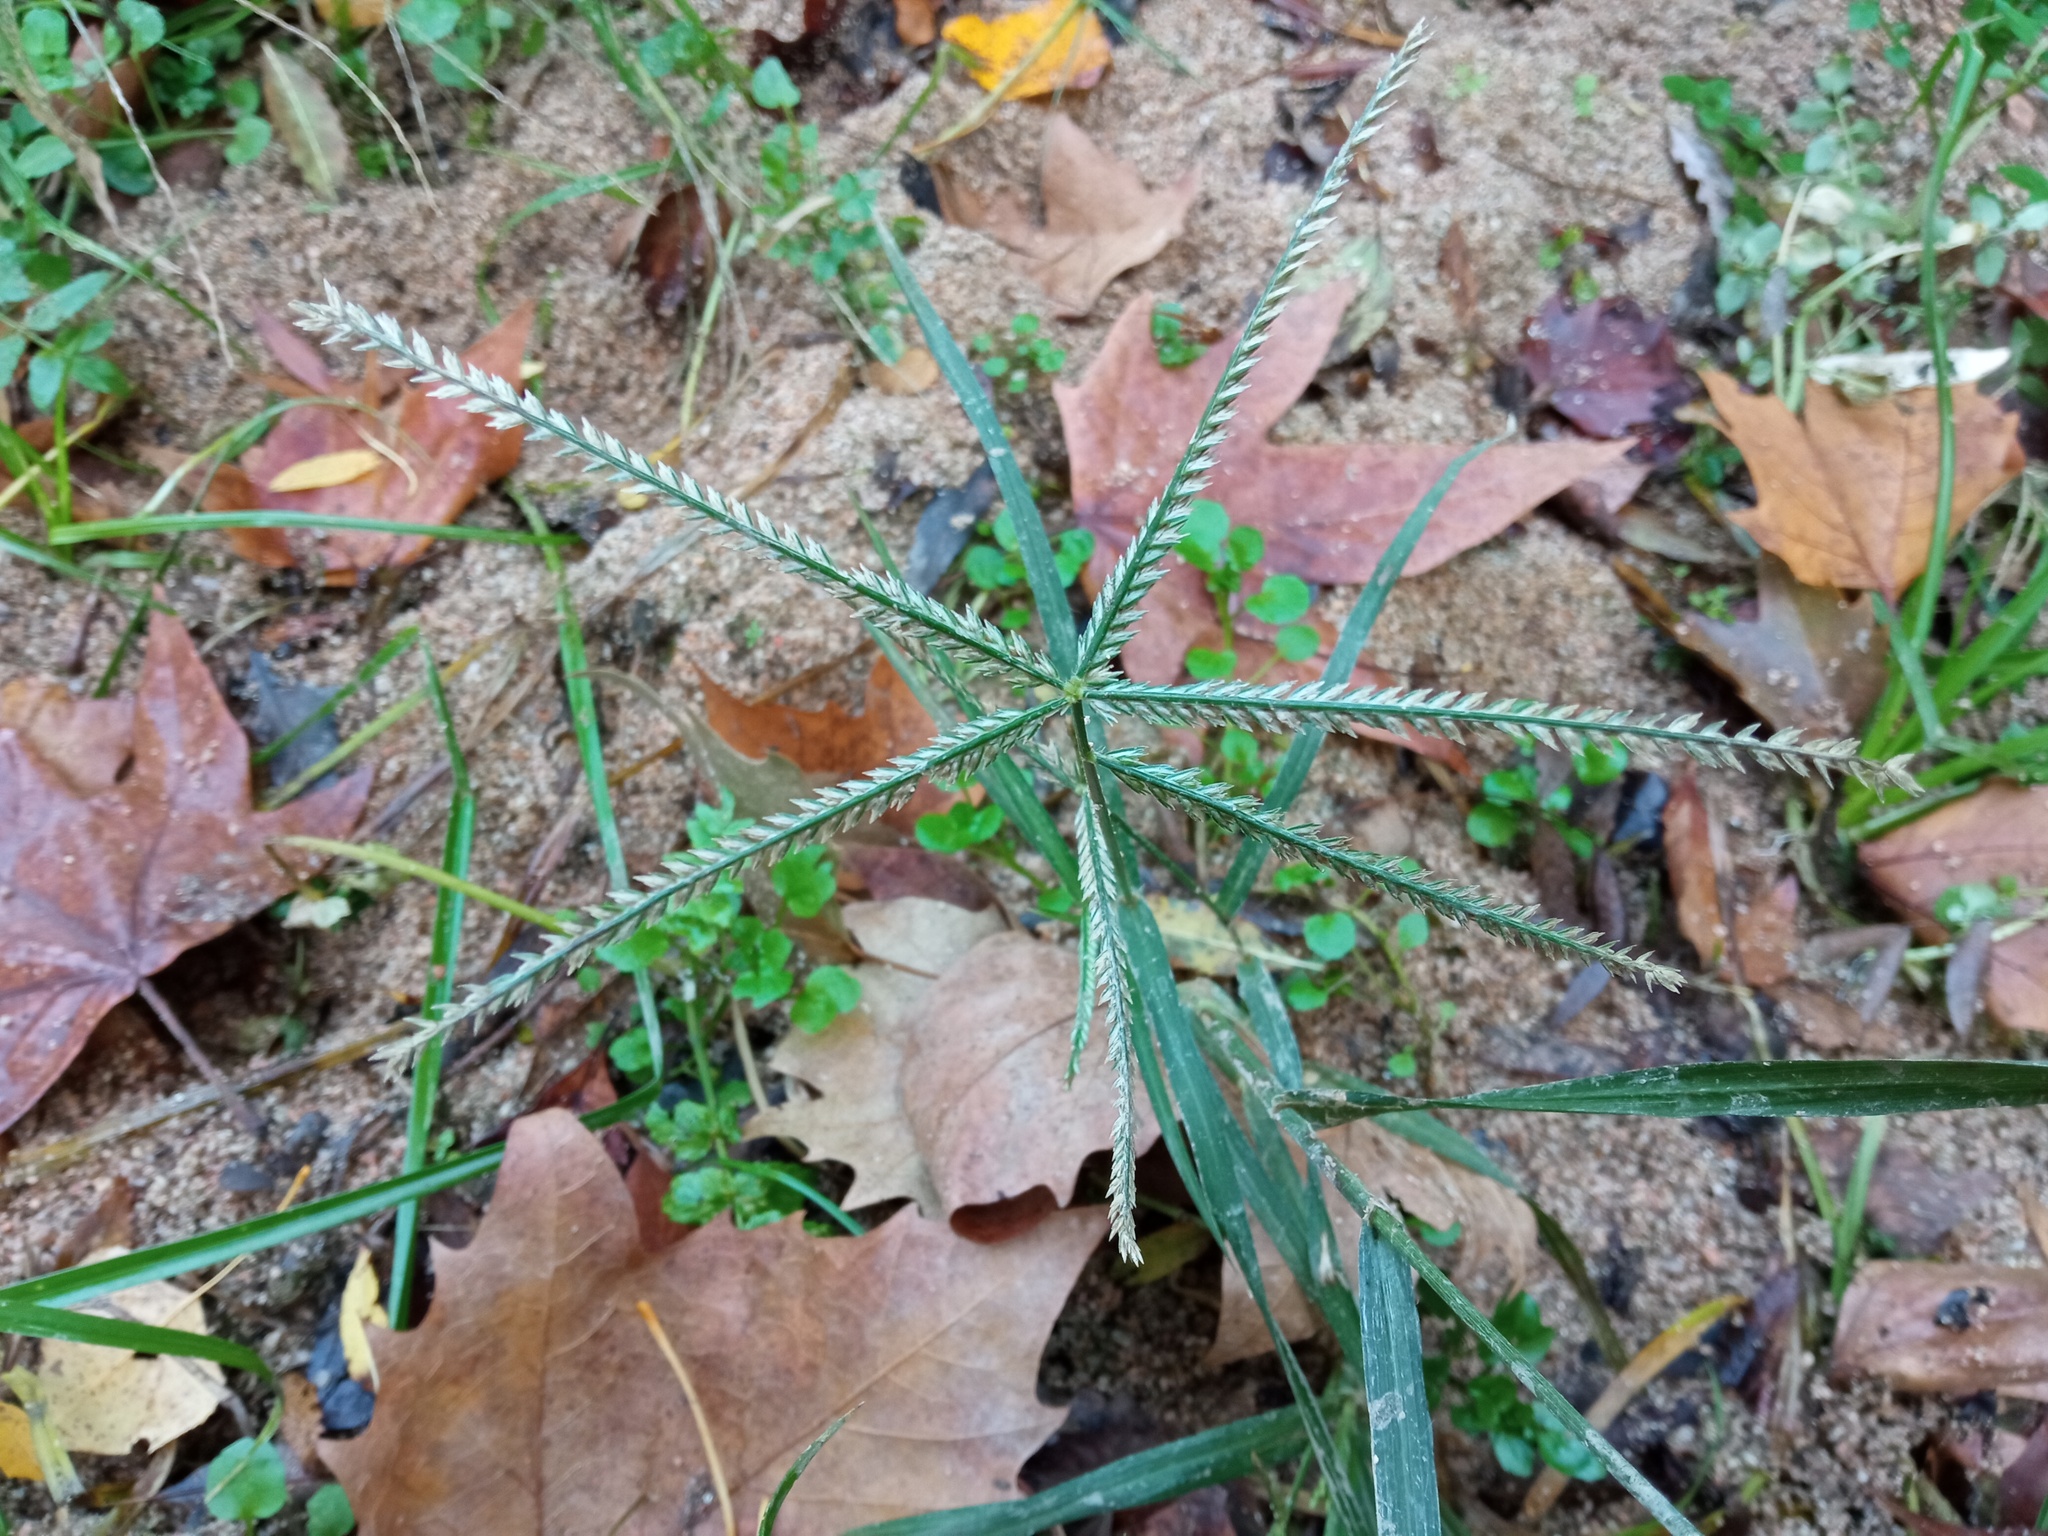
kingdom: Plantae
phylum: Tracheophyta
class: Liliopsida
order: Poales
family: Poaceae
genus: Eleusine
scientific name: Eleusine indica
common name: Yard-grass
